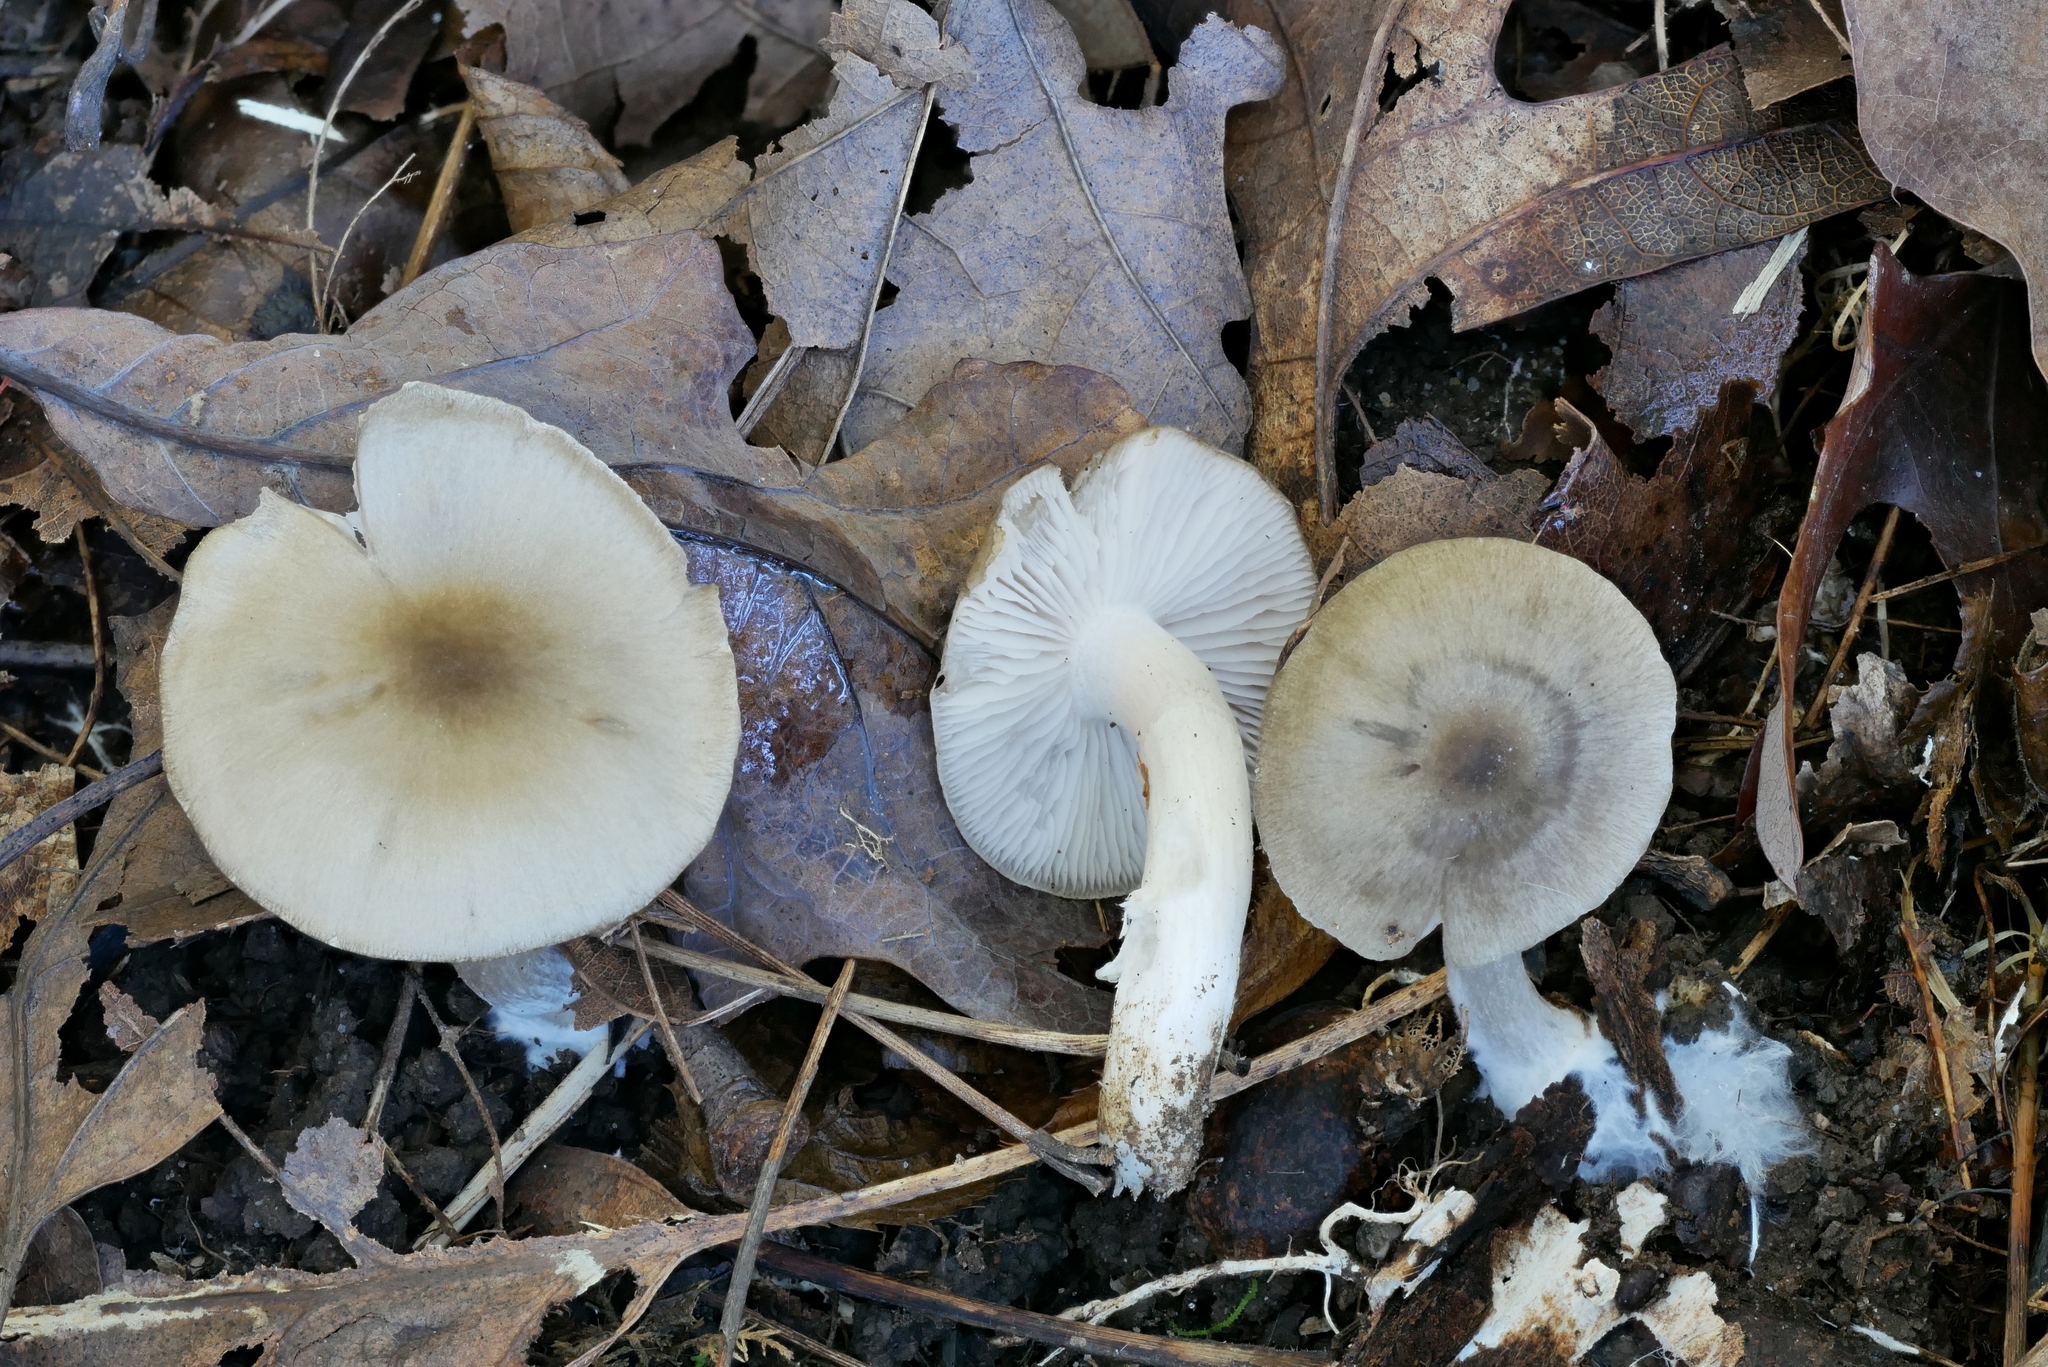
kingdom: Fungi
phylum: Basidiomycota
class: Agaricomycetes
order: Agaricales
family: Entolomataceae
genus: Entoloma
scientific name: Entoloma griseum
